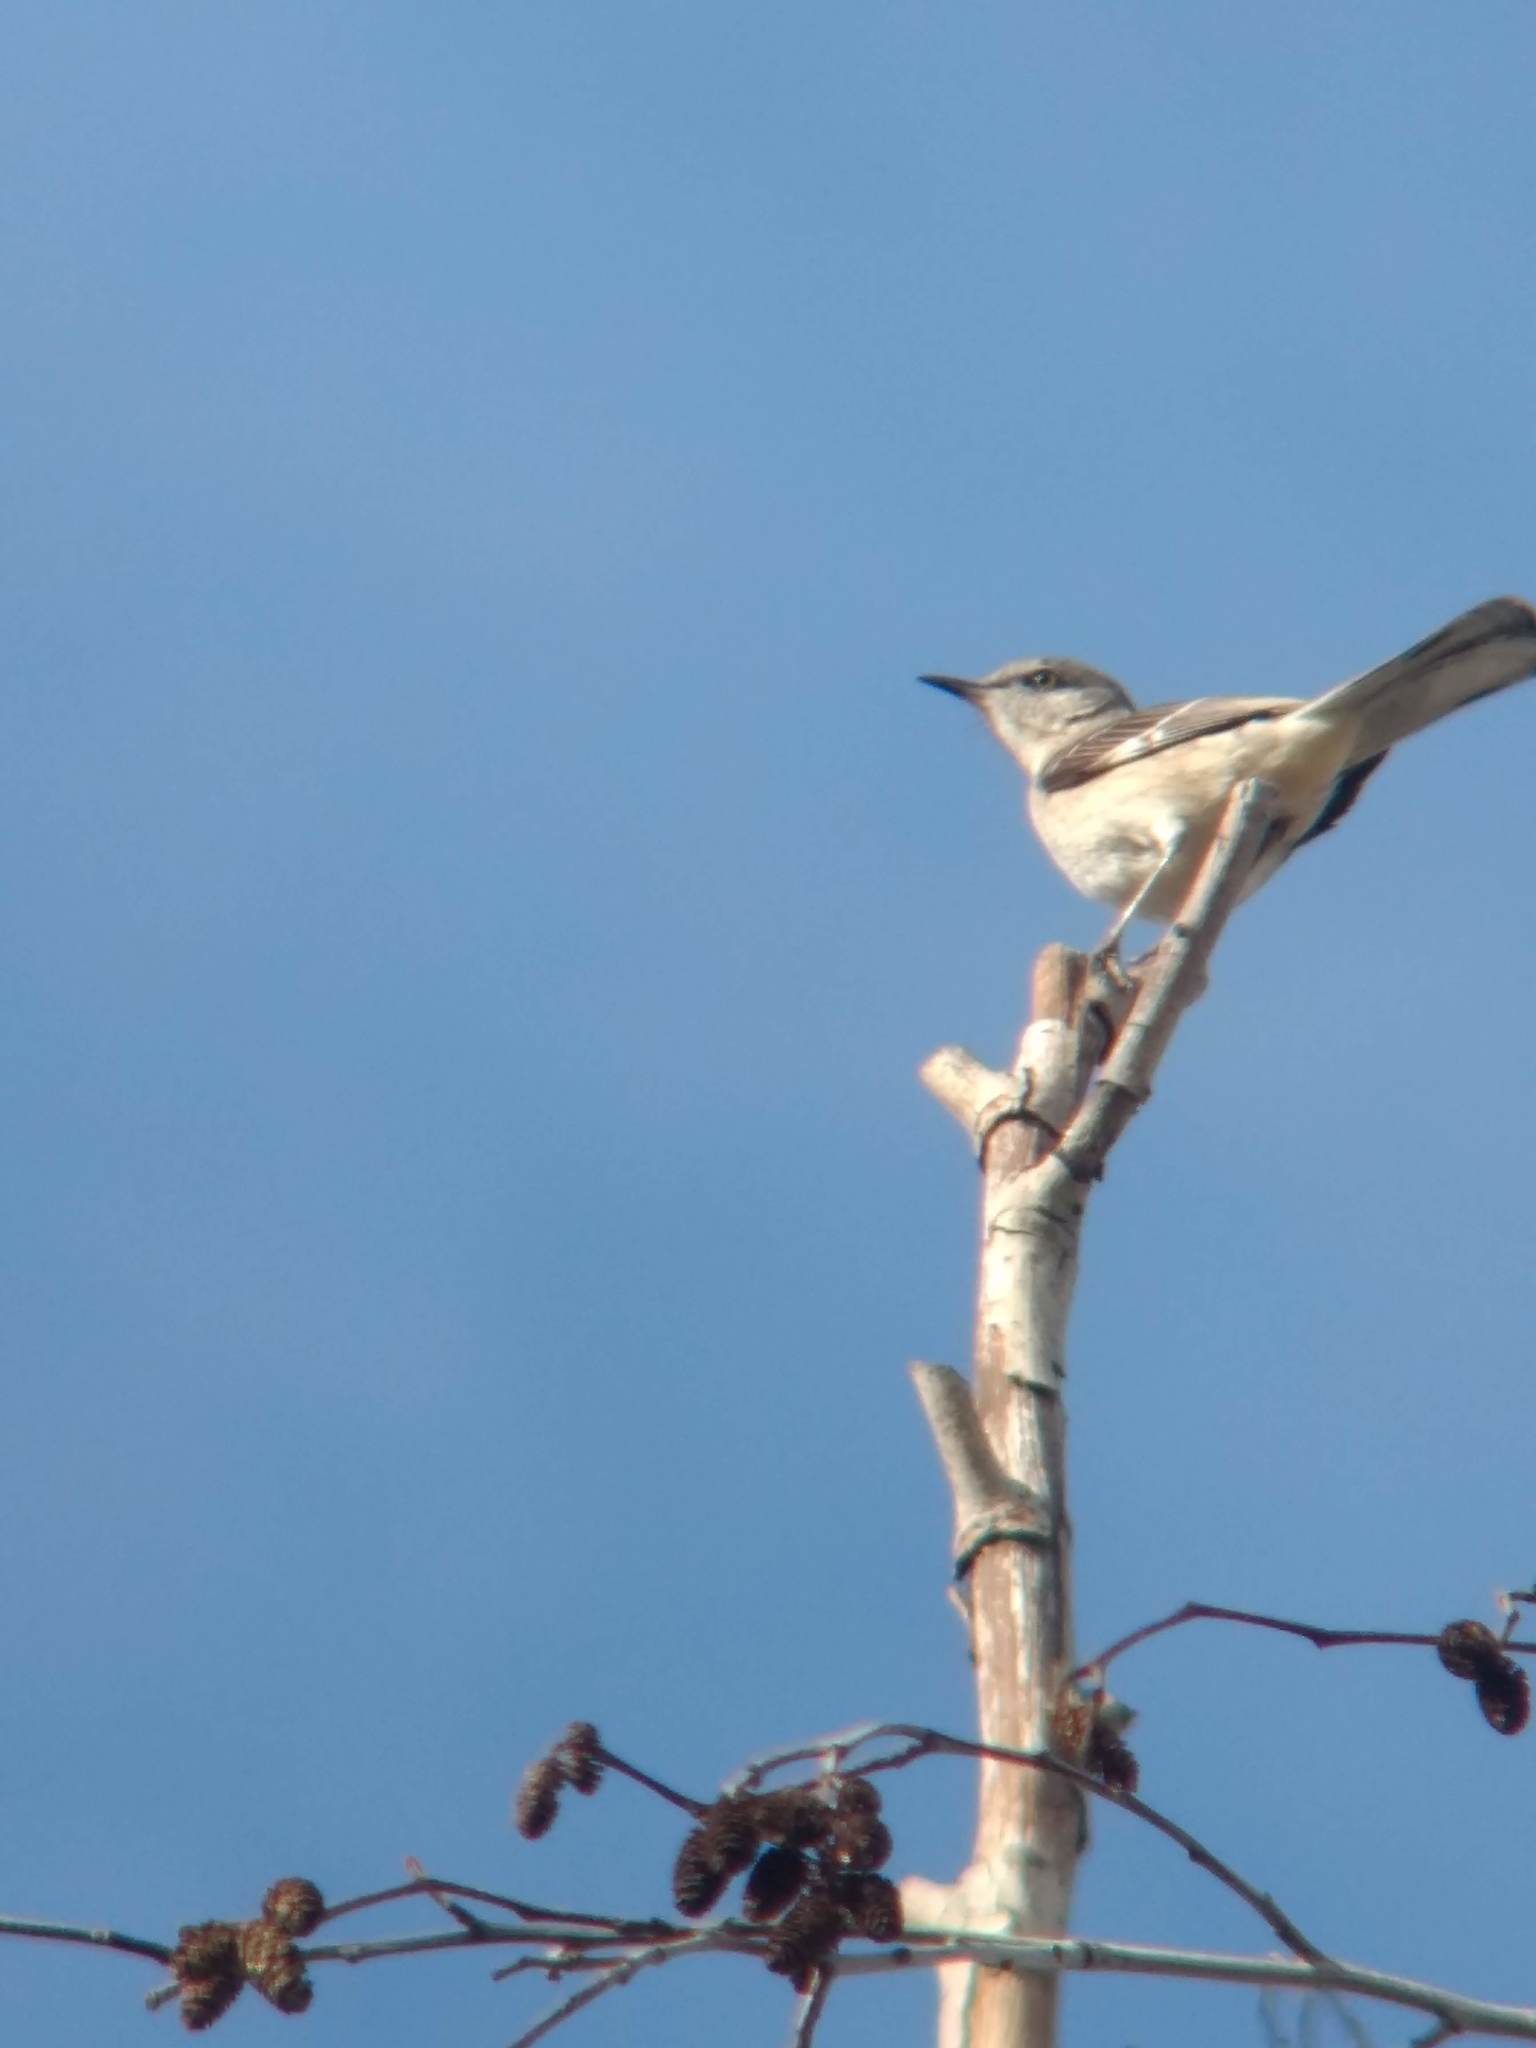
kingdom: Animalia
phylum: Chordata
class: Aves
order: Passeriformes
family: Mimidae
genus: Mimus
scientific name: Mimus polyglottos
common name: Northern mockingbird
